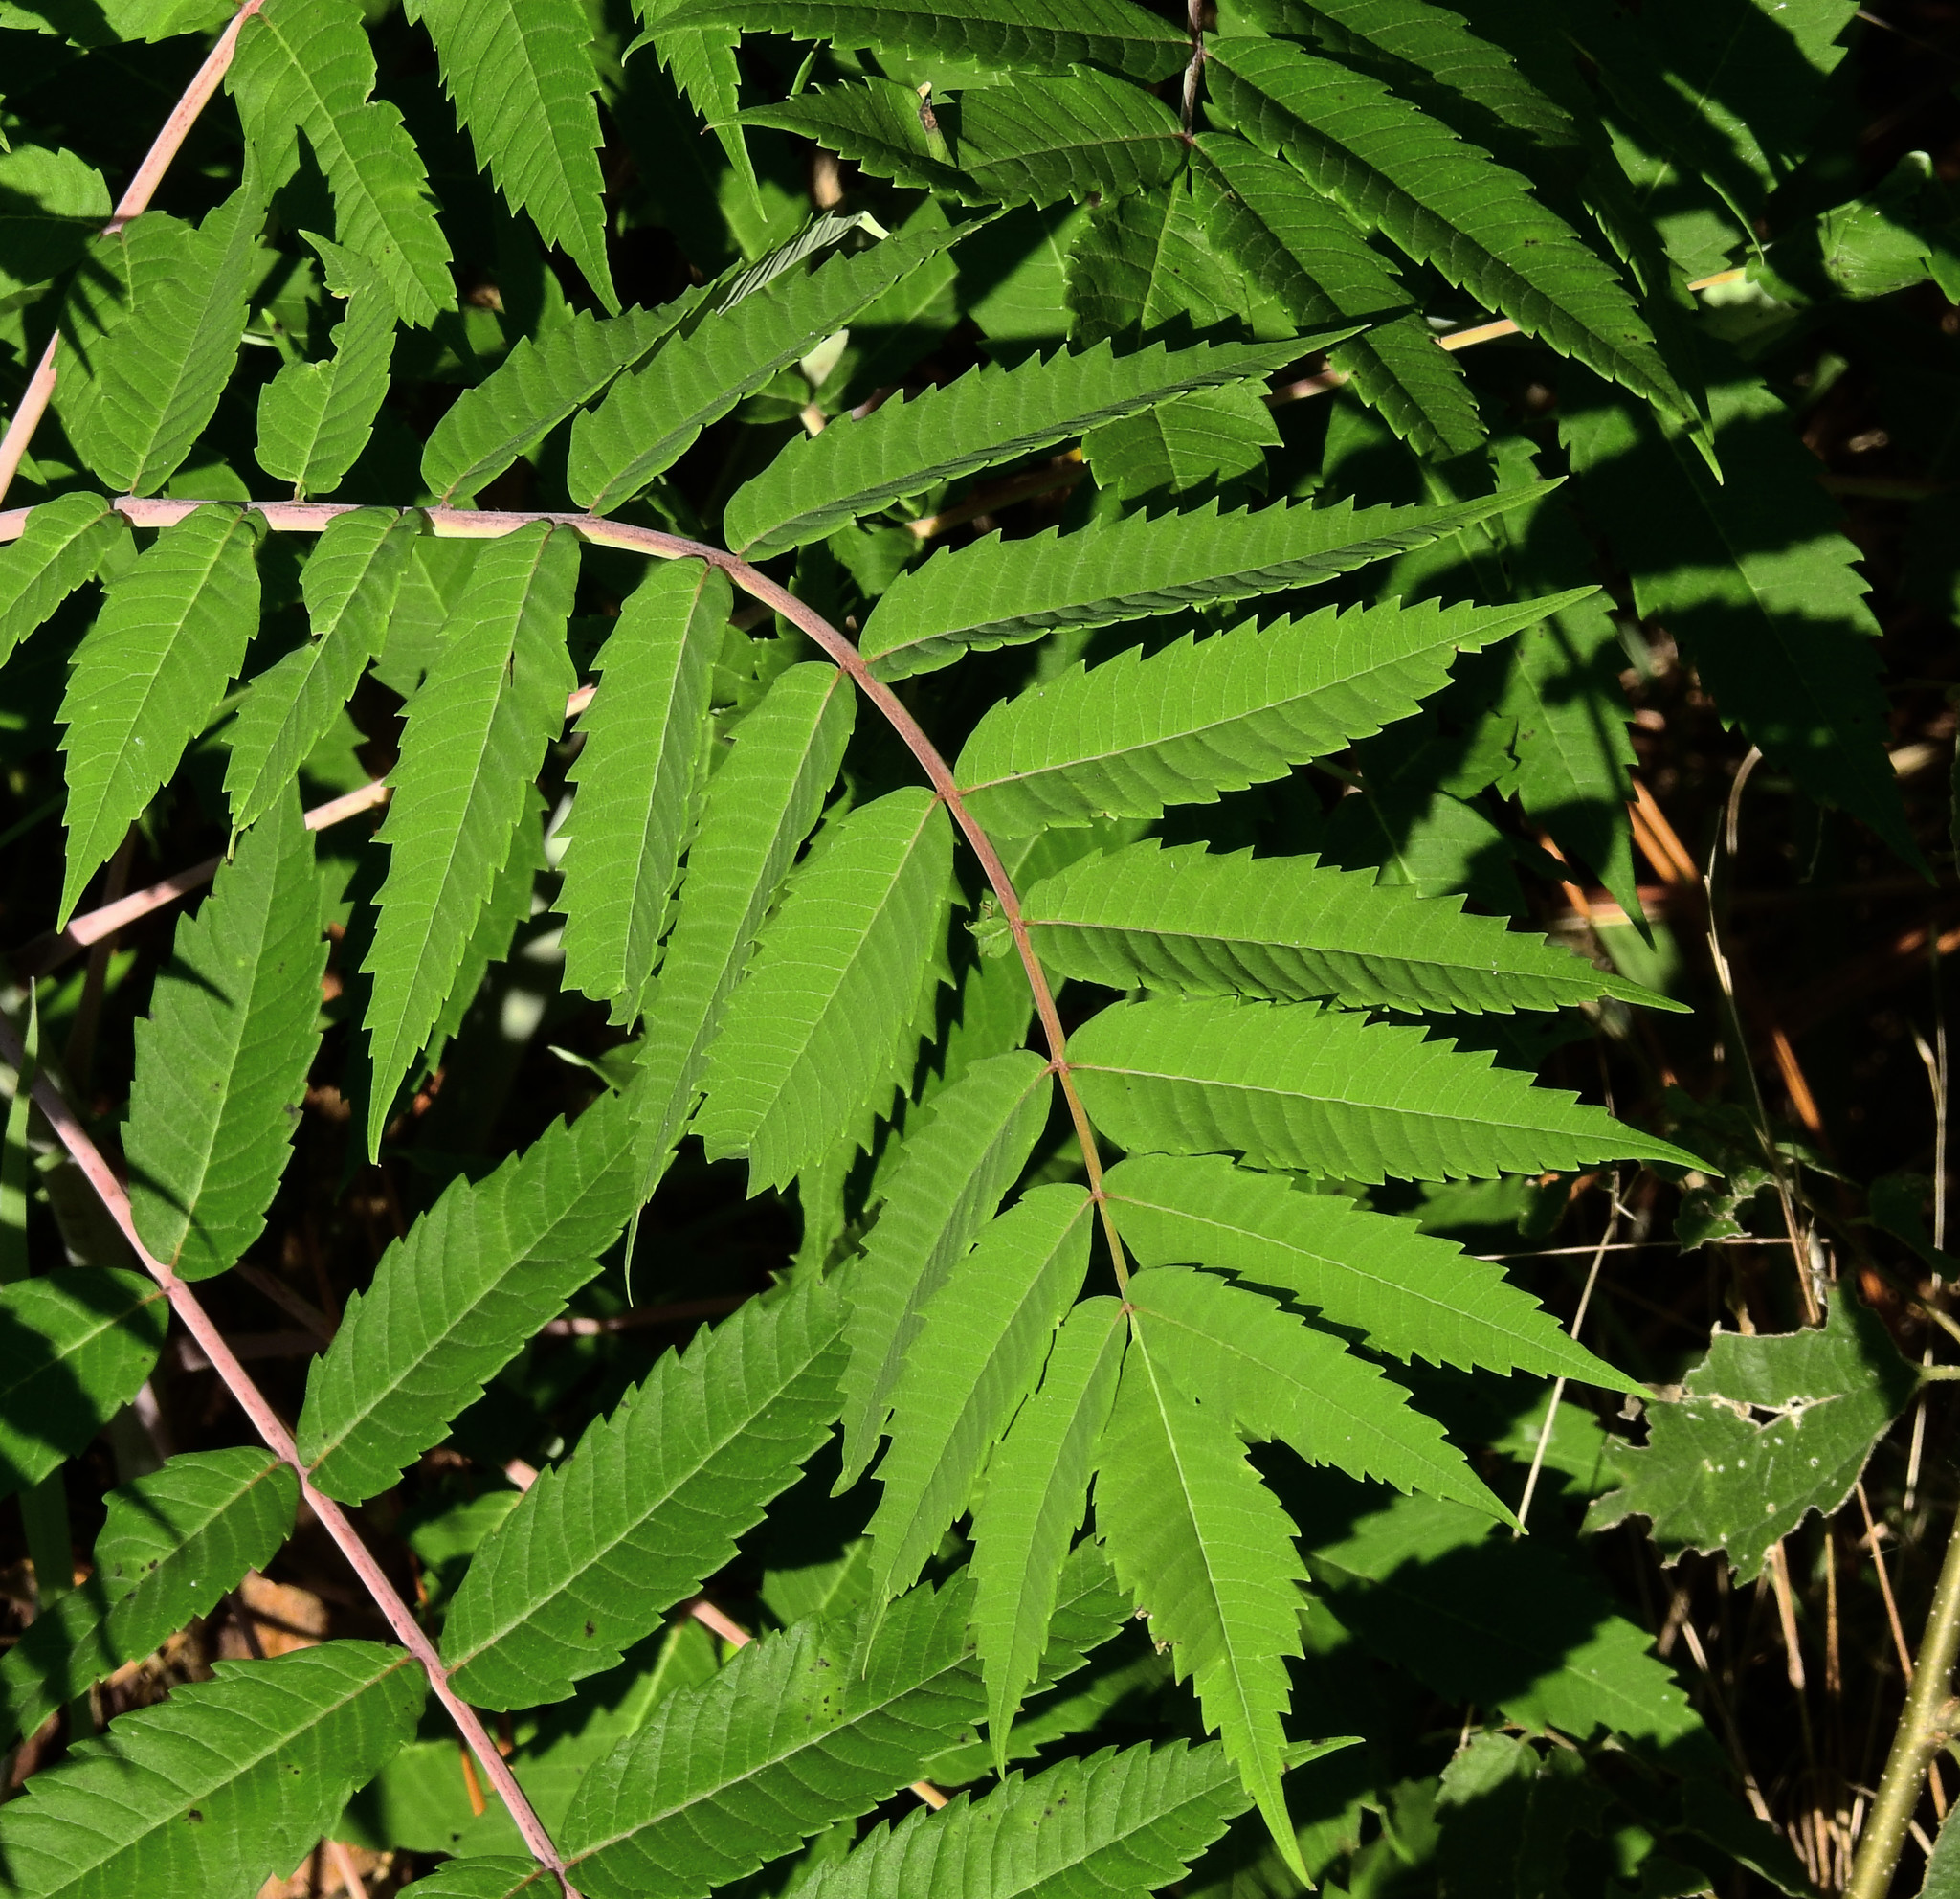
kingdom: Plantae
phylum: Tracheophyta
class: Magnoliopsida
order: Sapindales
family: Anacardiaceae
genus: Rhus
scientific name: Rhus glabra
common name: Scarlet sumac
